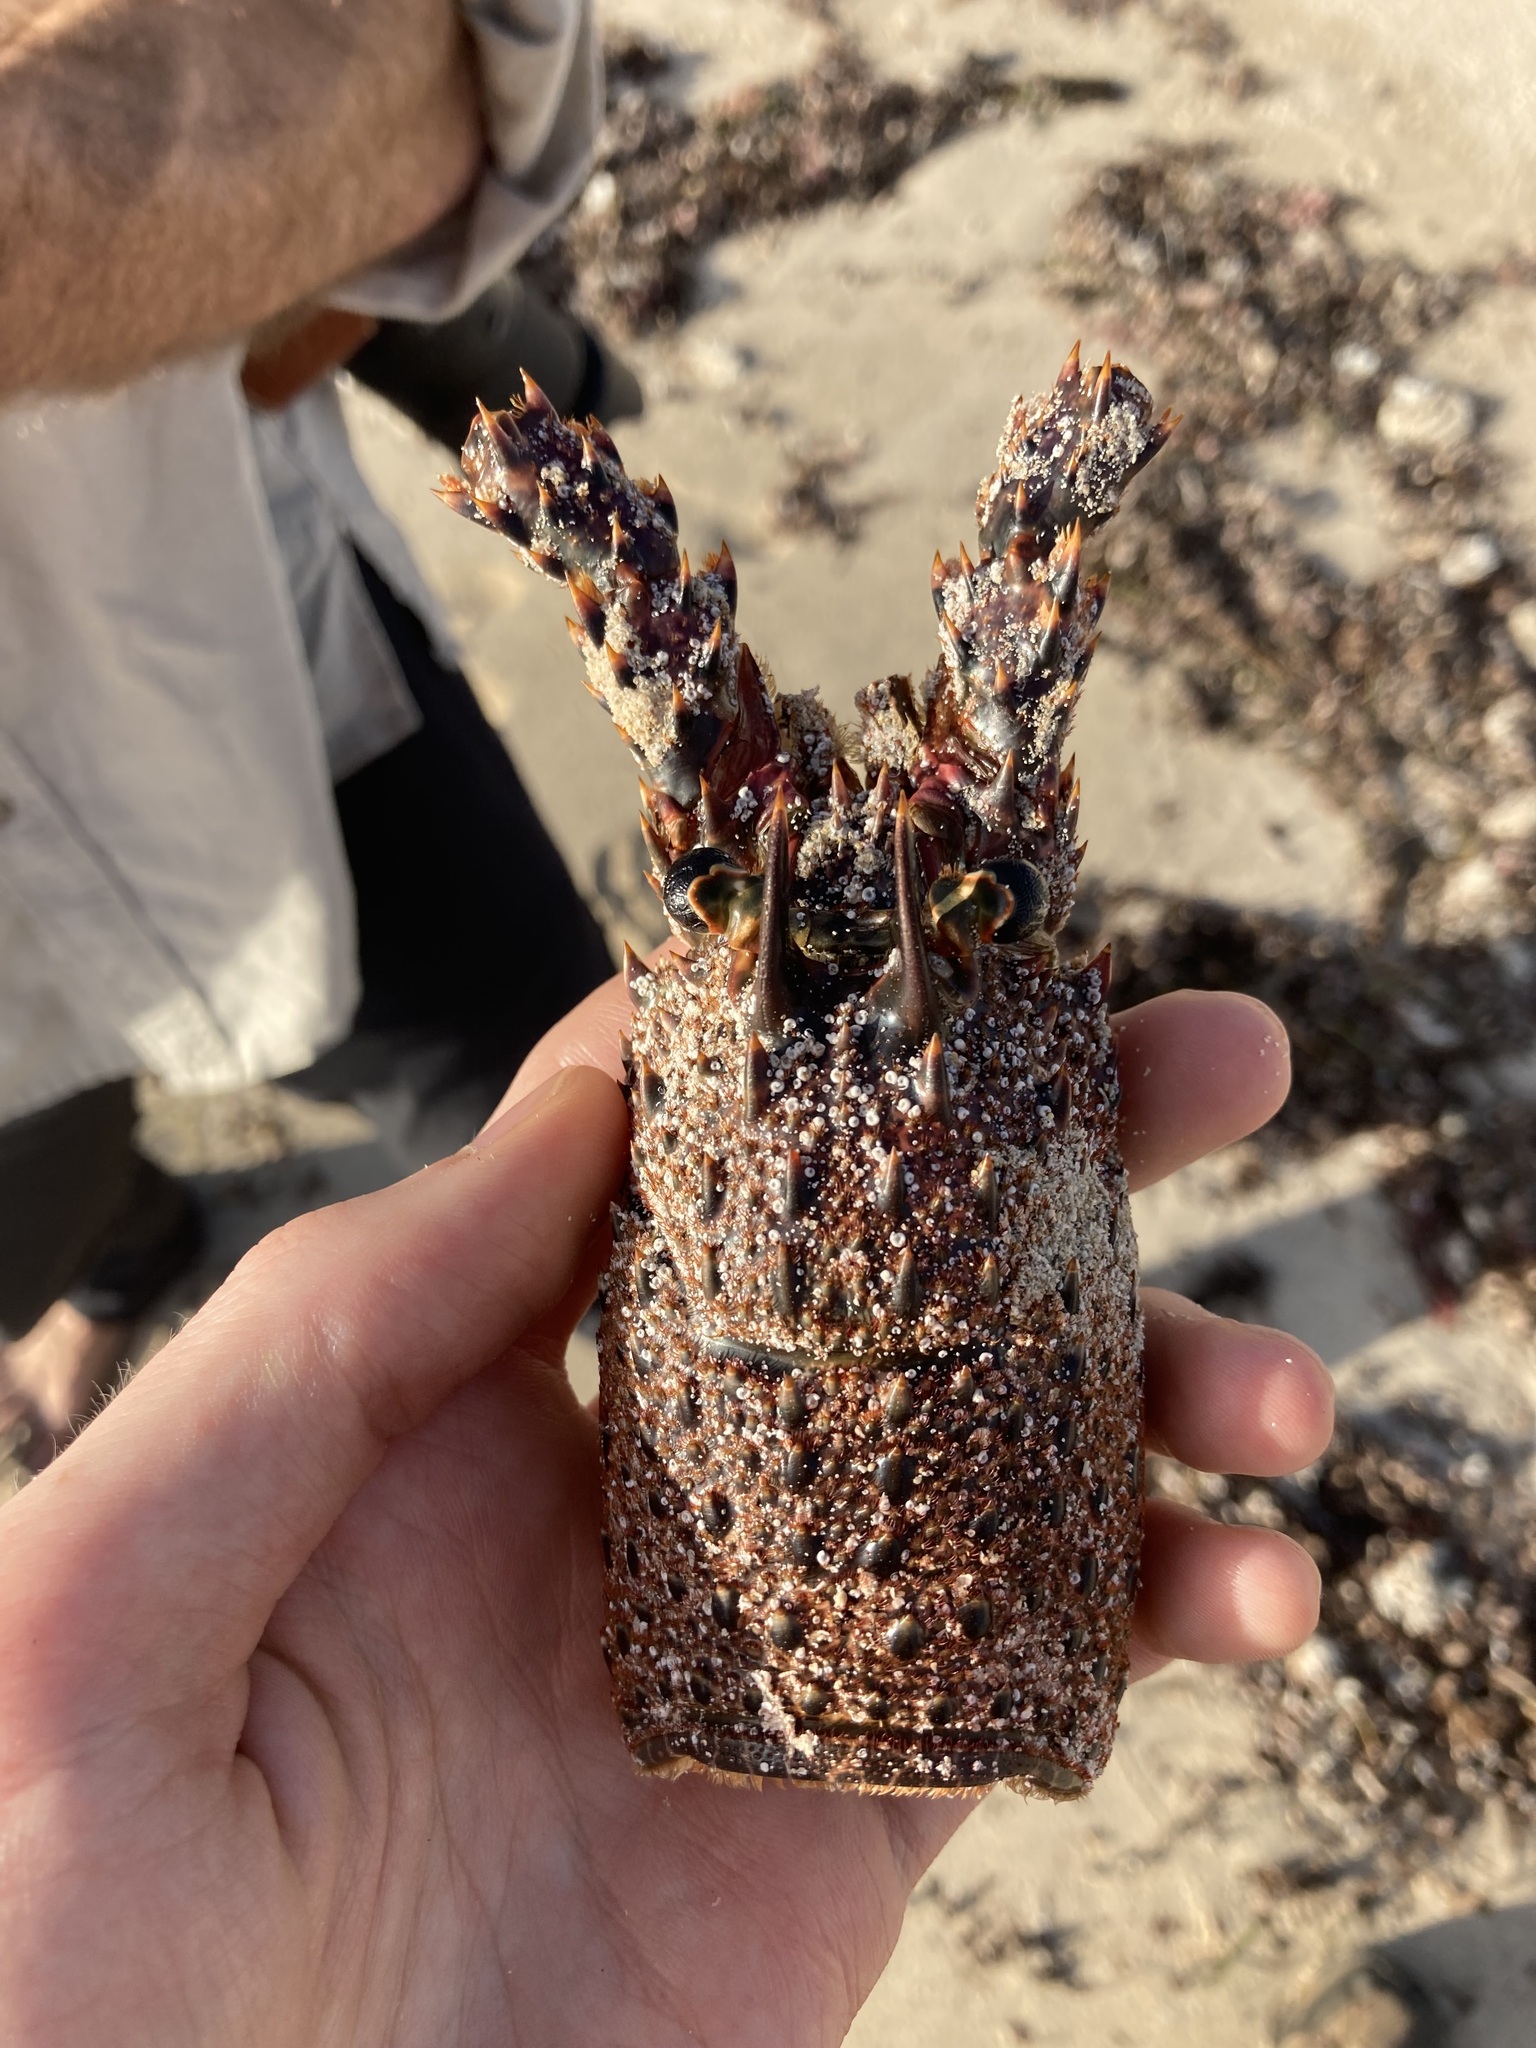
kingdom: Animalia
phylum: Arthropoda
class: Malacostraca
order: Decapoda
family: Palinuridae
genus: Panulirus
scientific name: Panulirus cygnus
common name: Australian spiny lobster
